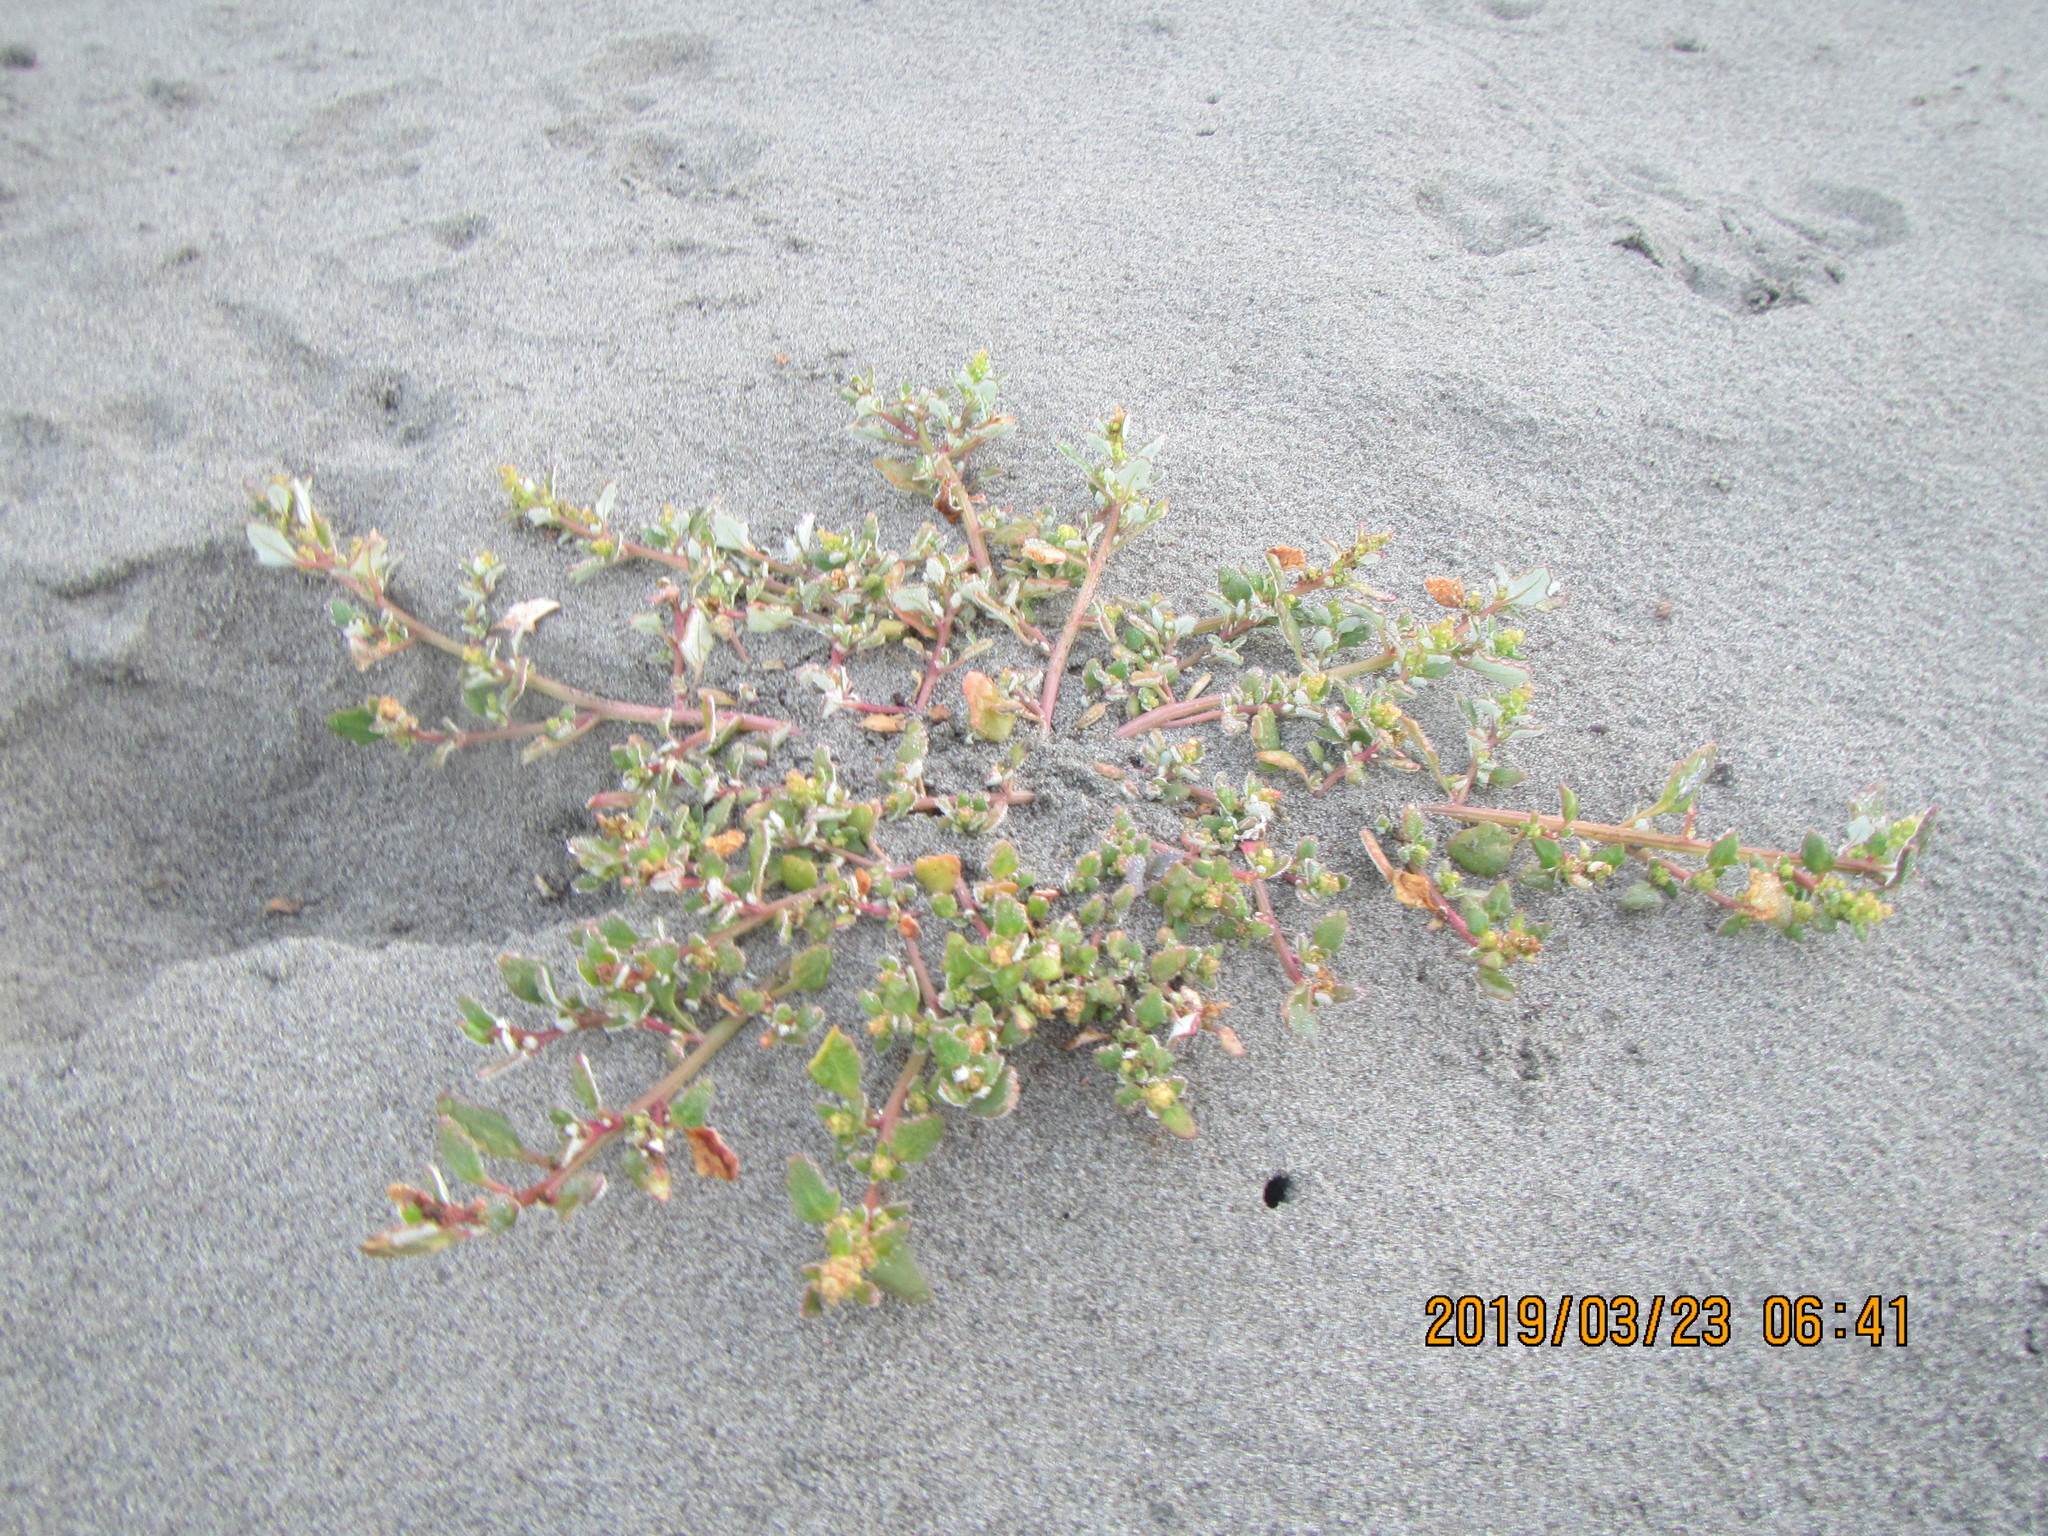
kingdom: Plantae
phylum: Tracheophyta
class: Magnoliopsida
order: Caryophyllales
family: Amaranthaceae
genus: Oxybasis
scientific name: Oxybasis ambigua
